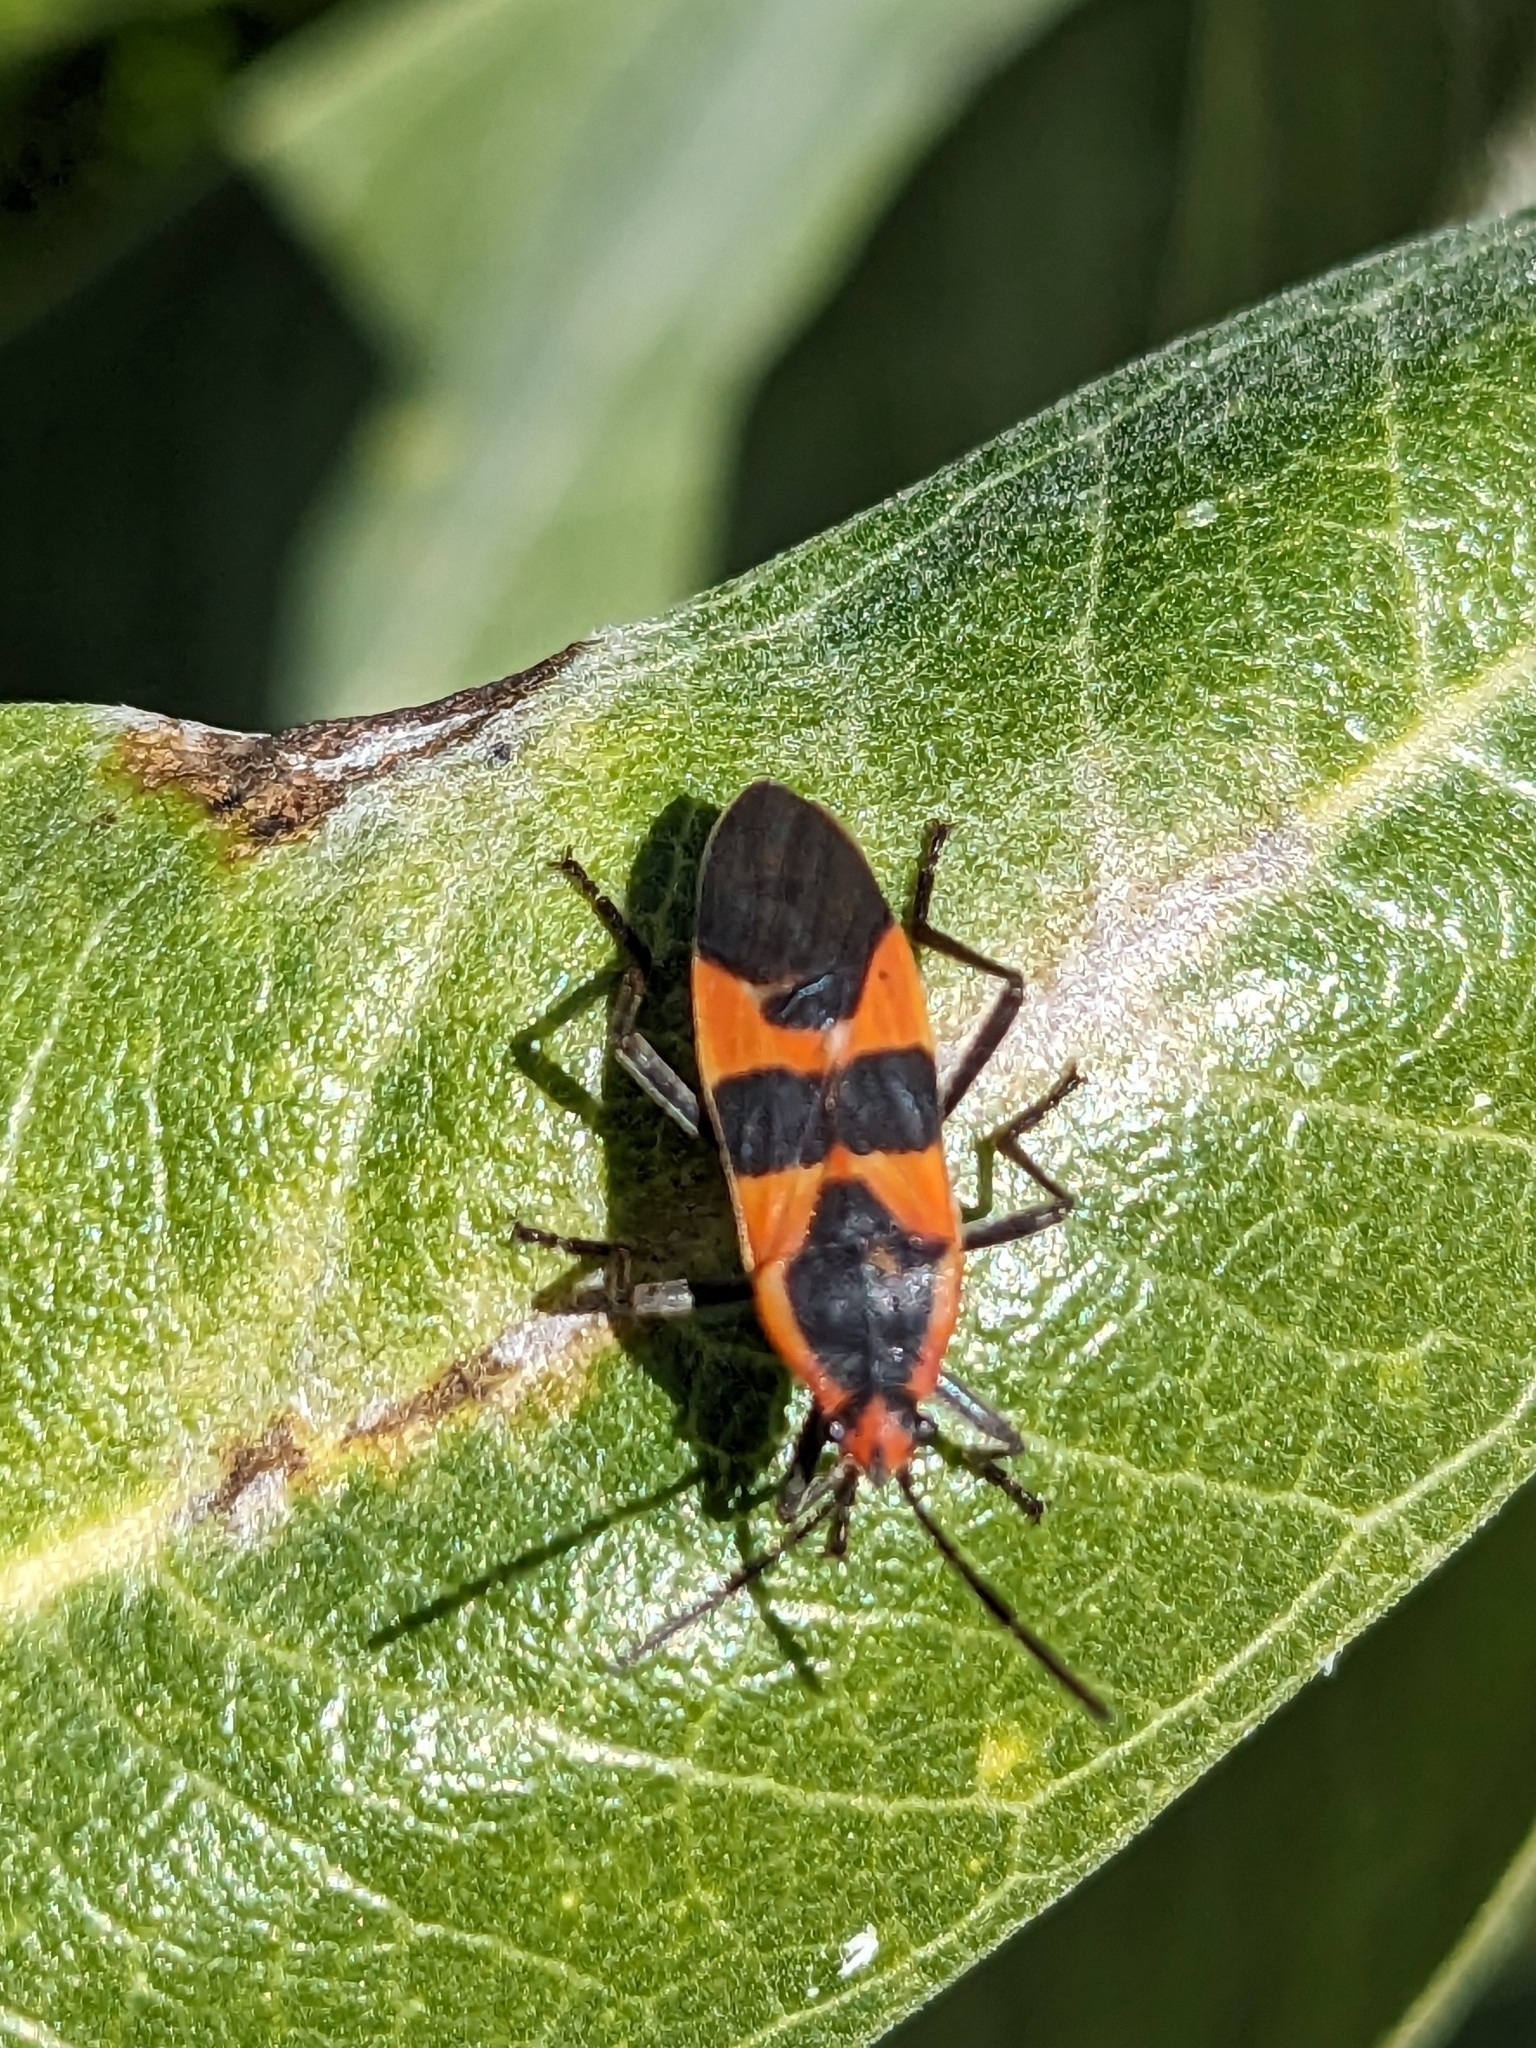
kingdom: Animalia
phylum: Arthropoda
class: Insecta
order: Hemiptera
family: Lygaeidae
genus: Oncopeltus
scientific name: Oncopeltus fasciatus
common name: Large milkweed bug
